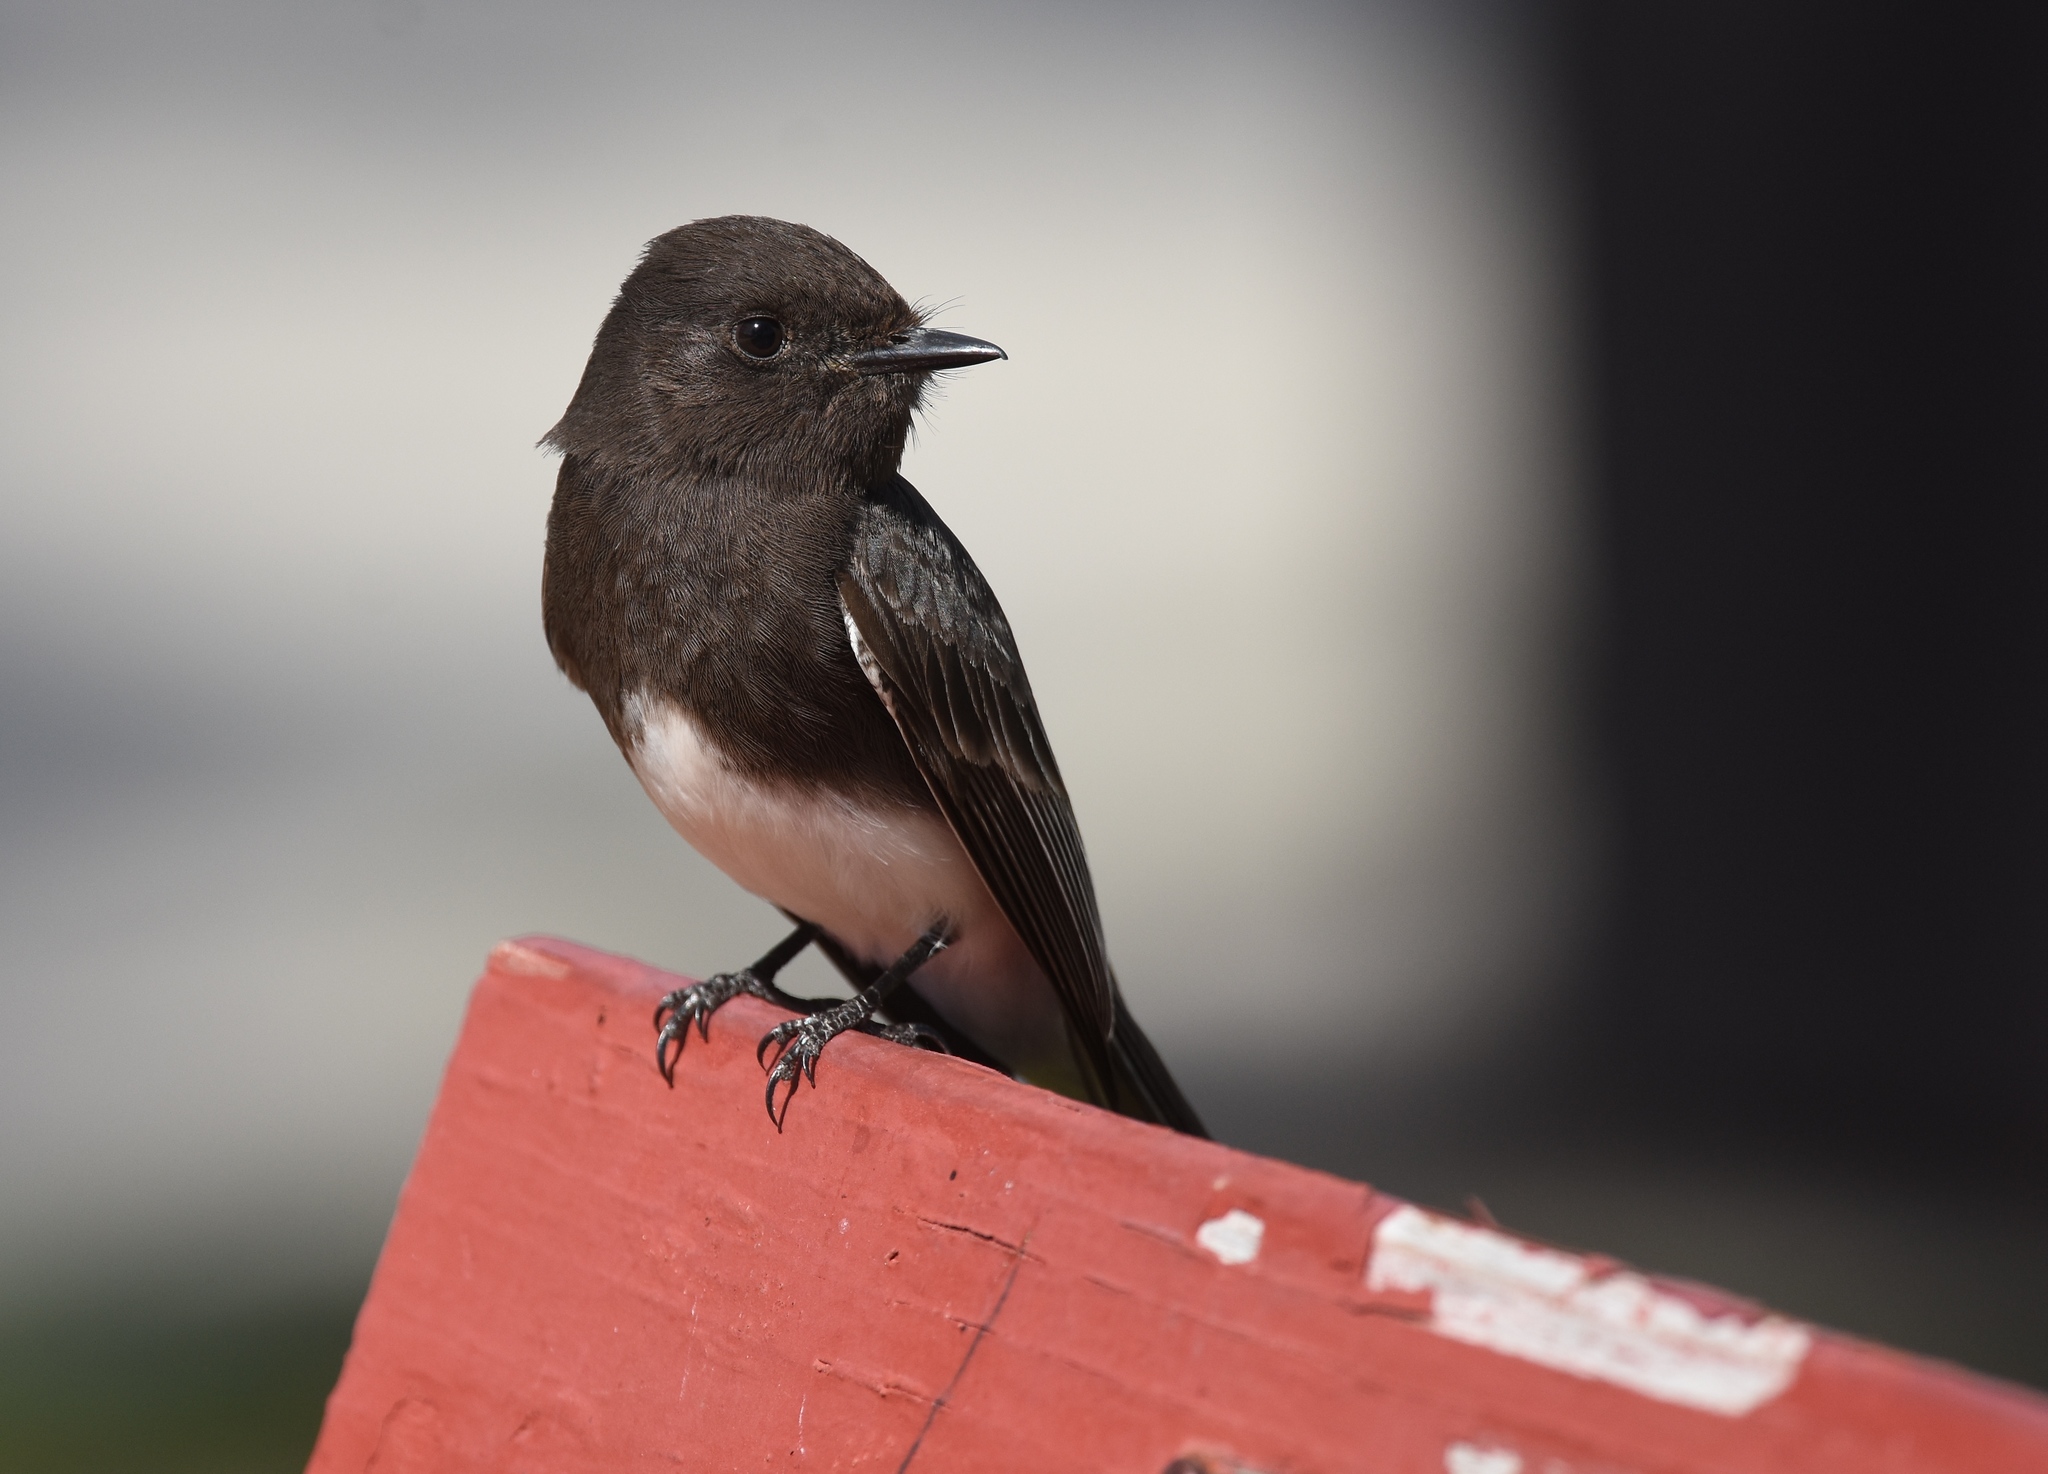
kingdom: Animalia
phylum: Chordata
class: Aves
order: Passeriformes
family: Tyrannidae
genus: Sayornis
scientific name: Sayornis nigricans
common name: Black phoebe
